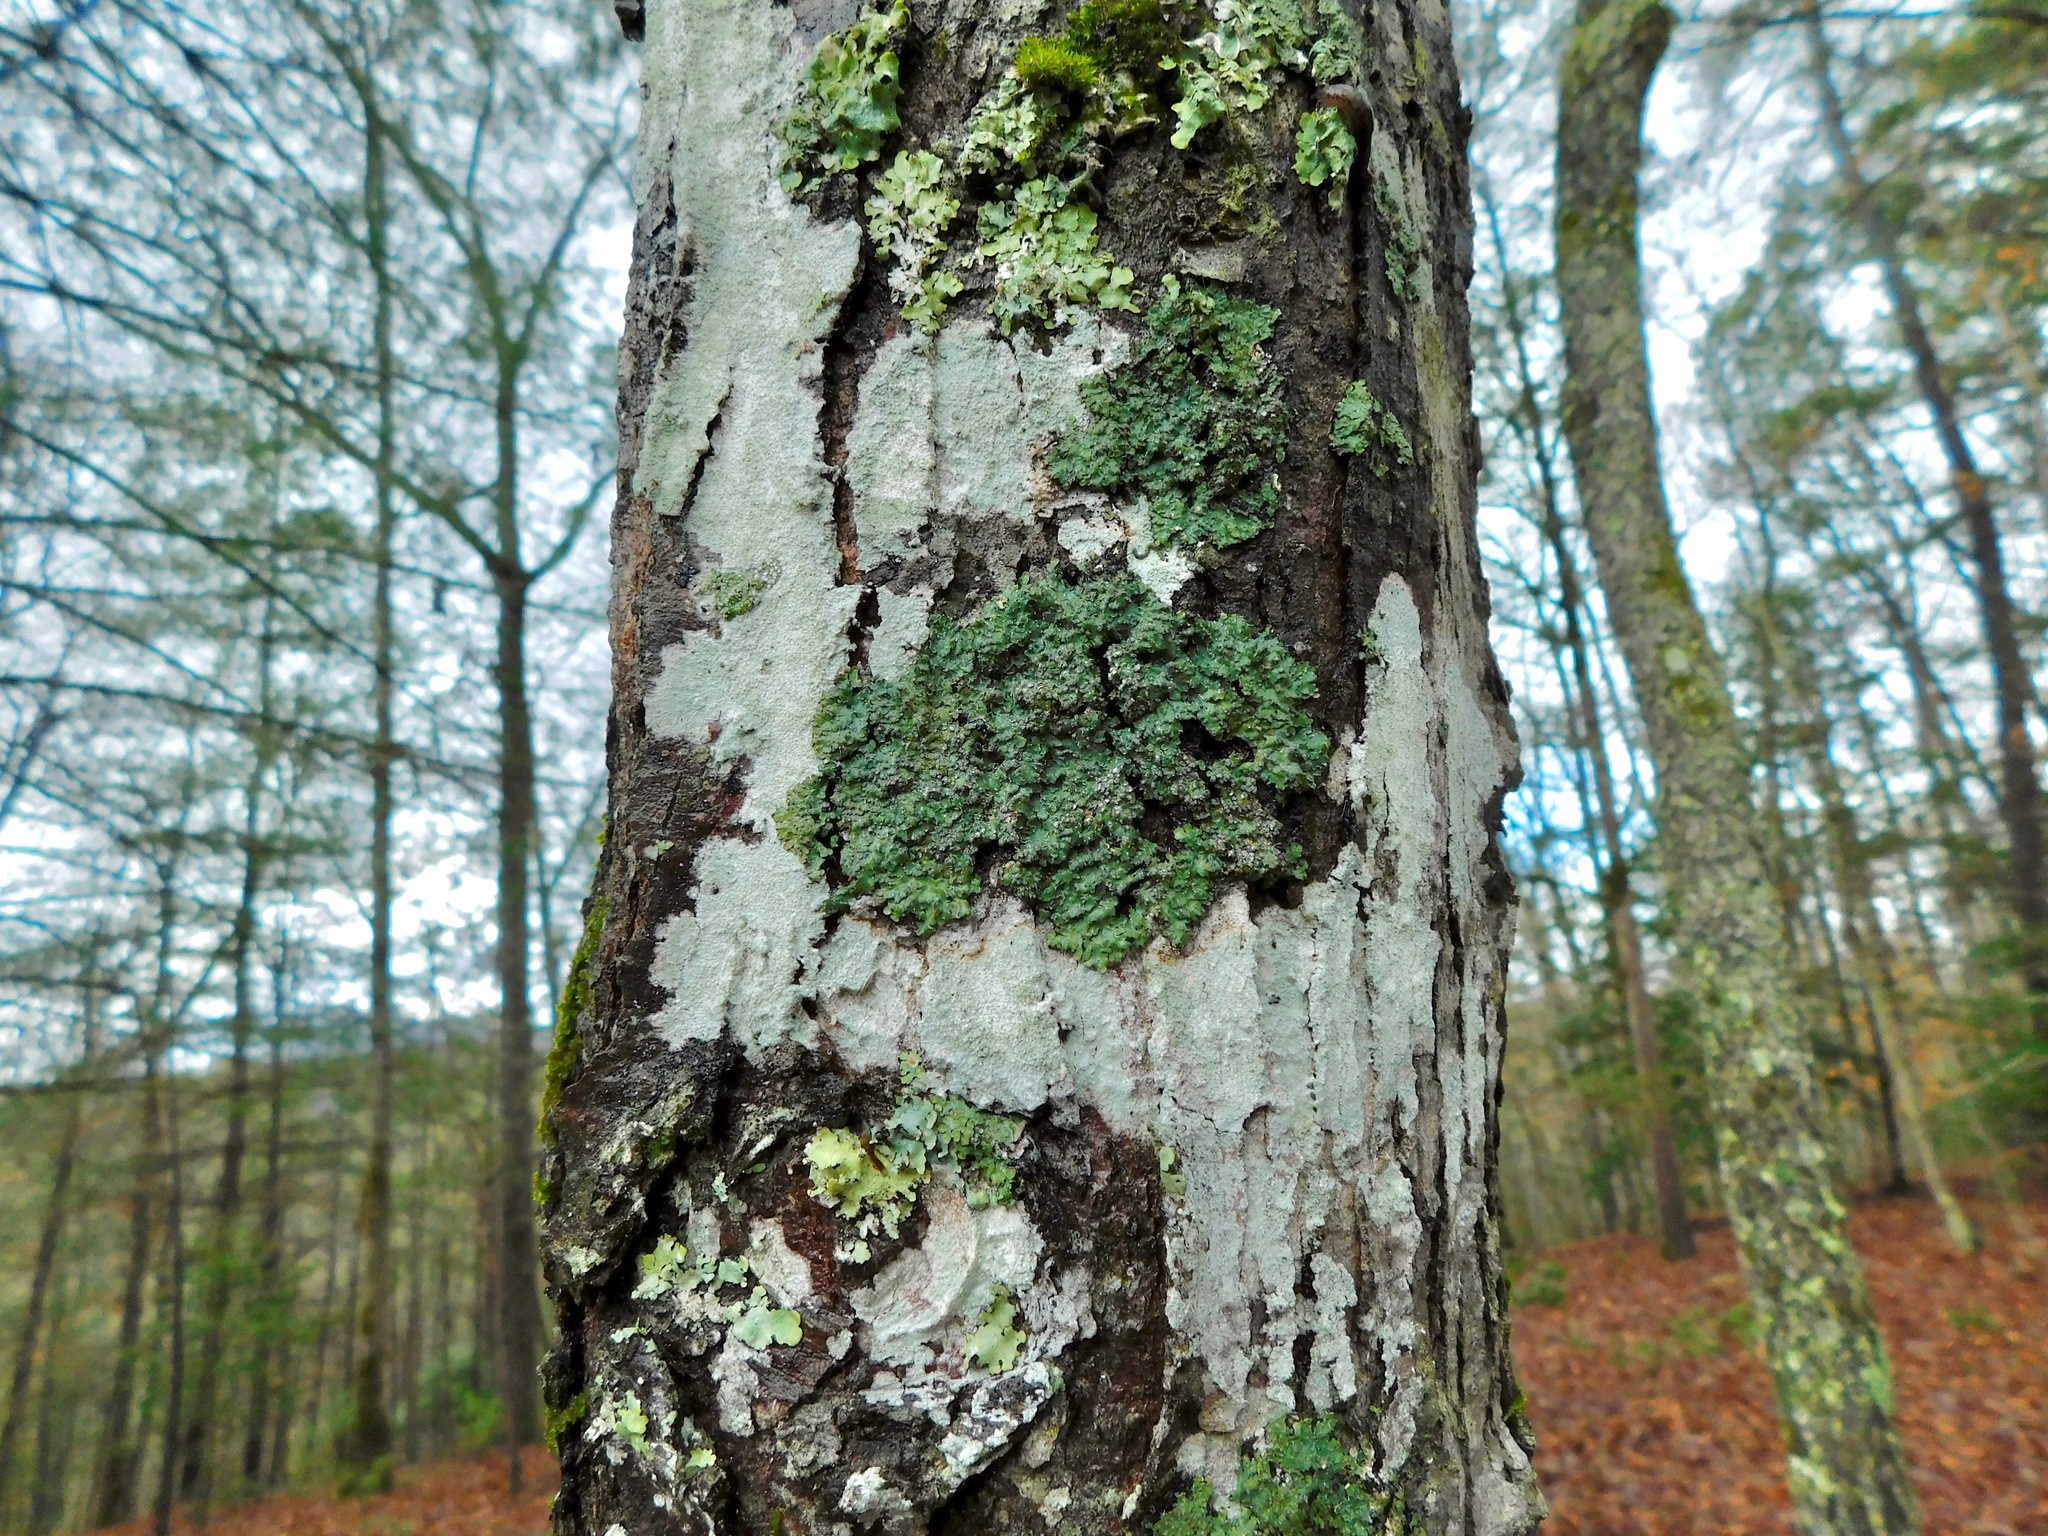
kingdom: Fungi
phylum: Ascomycota
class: Lecanoromycetes
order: Caliciales
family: Caliciaceae
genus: Pyxine
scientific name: Pyxine albovirens
